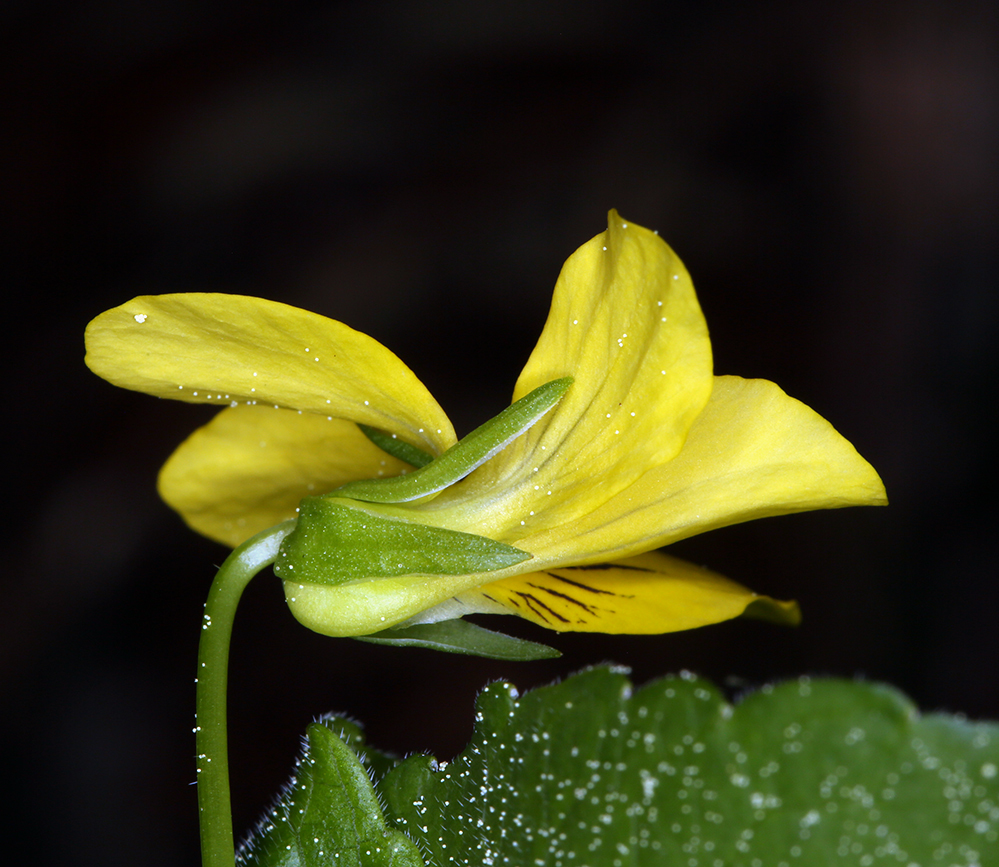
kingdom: Plantae
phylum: Tracheophyta
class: Magnoliopsida
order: Malpighiales
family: Violaceae
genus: Viola
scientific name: Viola glabella
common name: Stream violet
